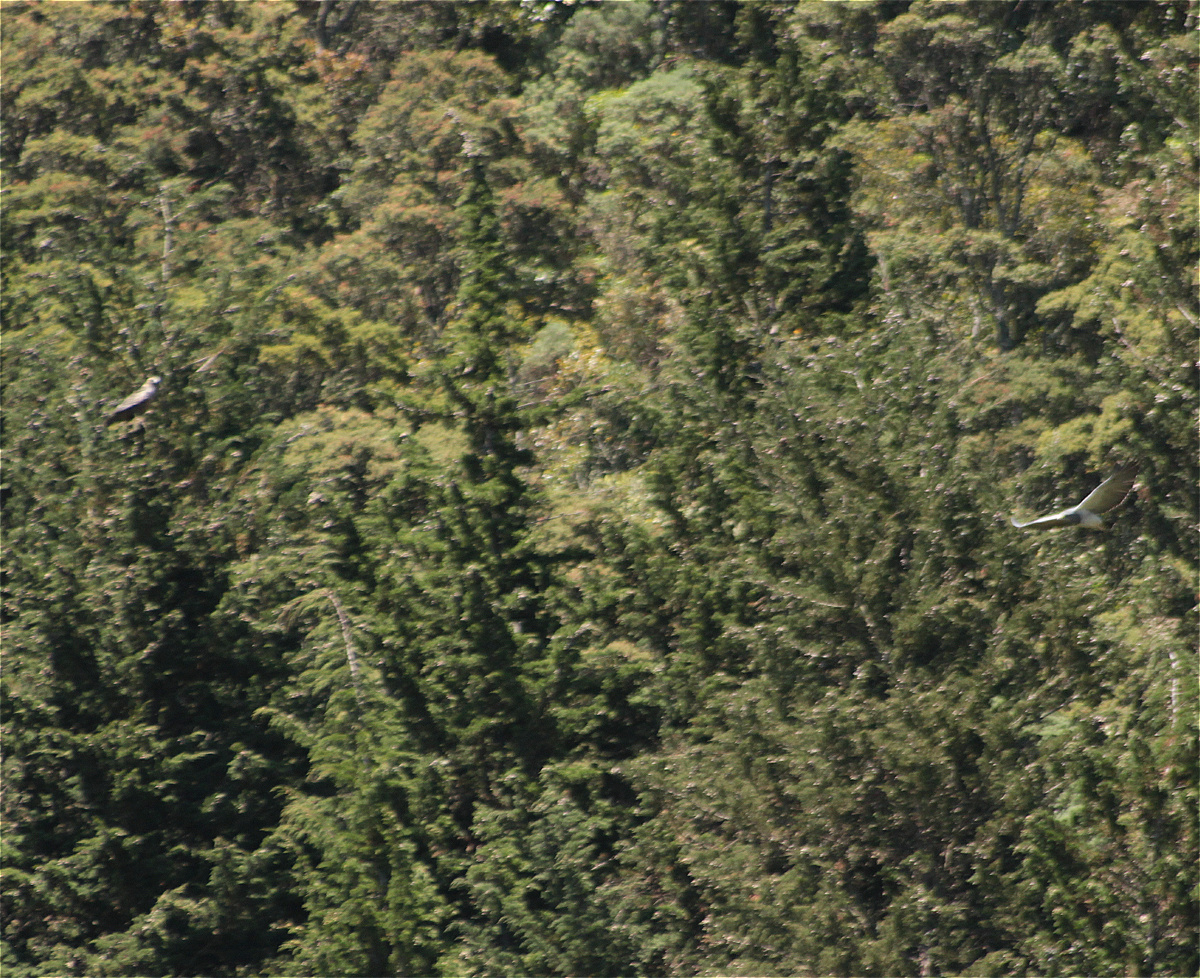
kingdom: Animalia
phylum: Chordata
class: Aves
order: Accipitriformes
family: Accipitridae
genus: Geranoaetus
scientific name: Geranoaetus melanoleucus
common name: Black-chested buzzard-eagle
